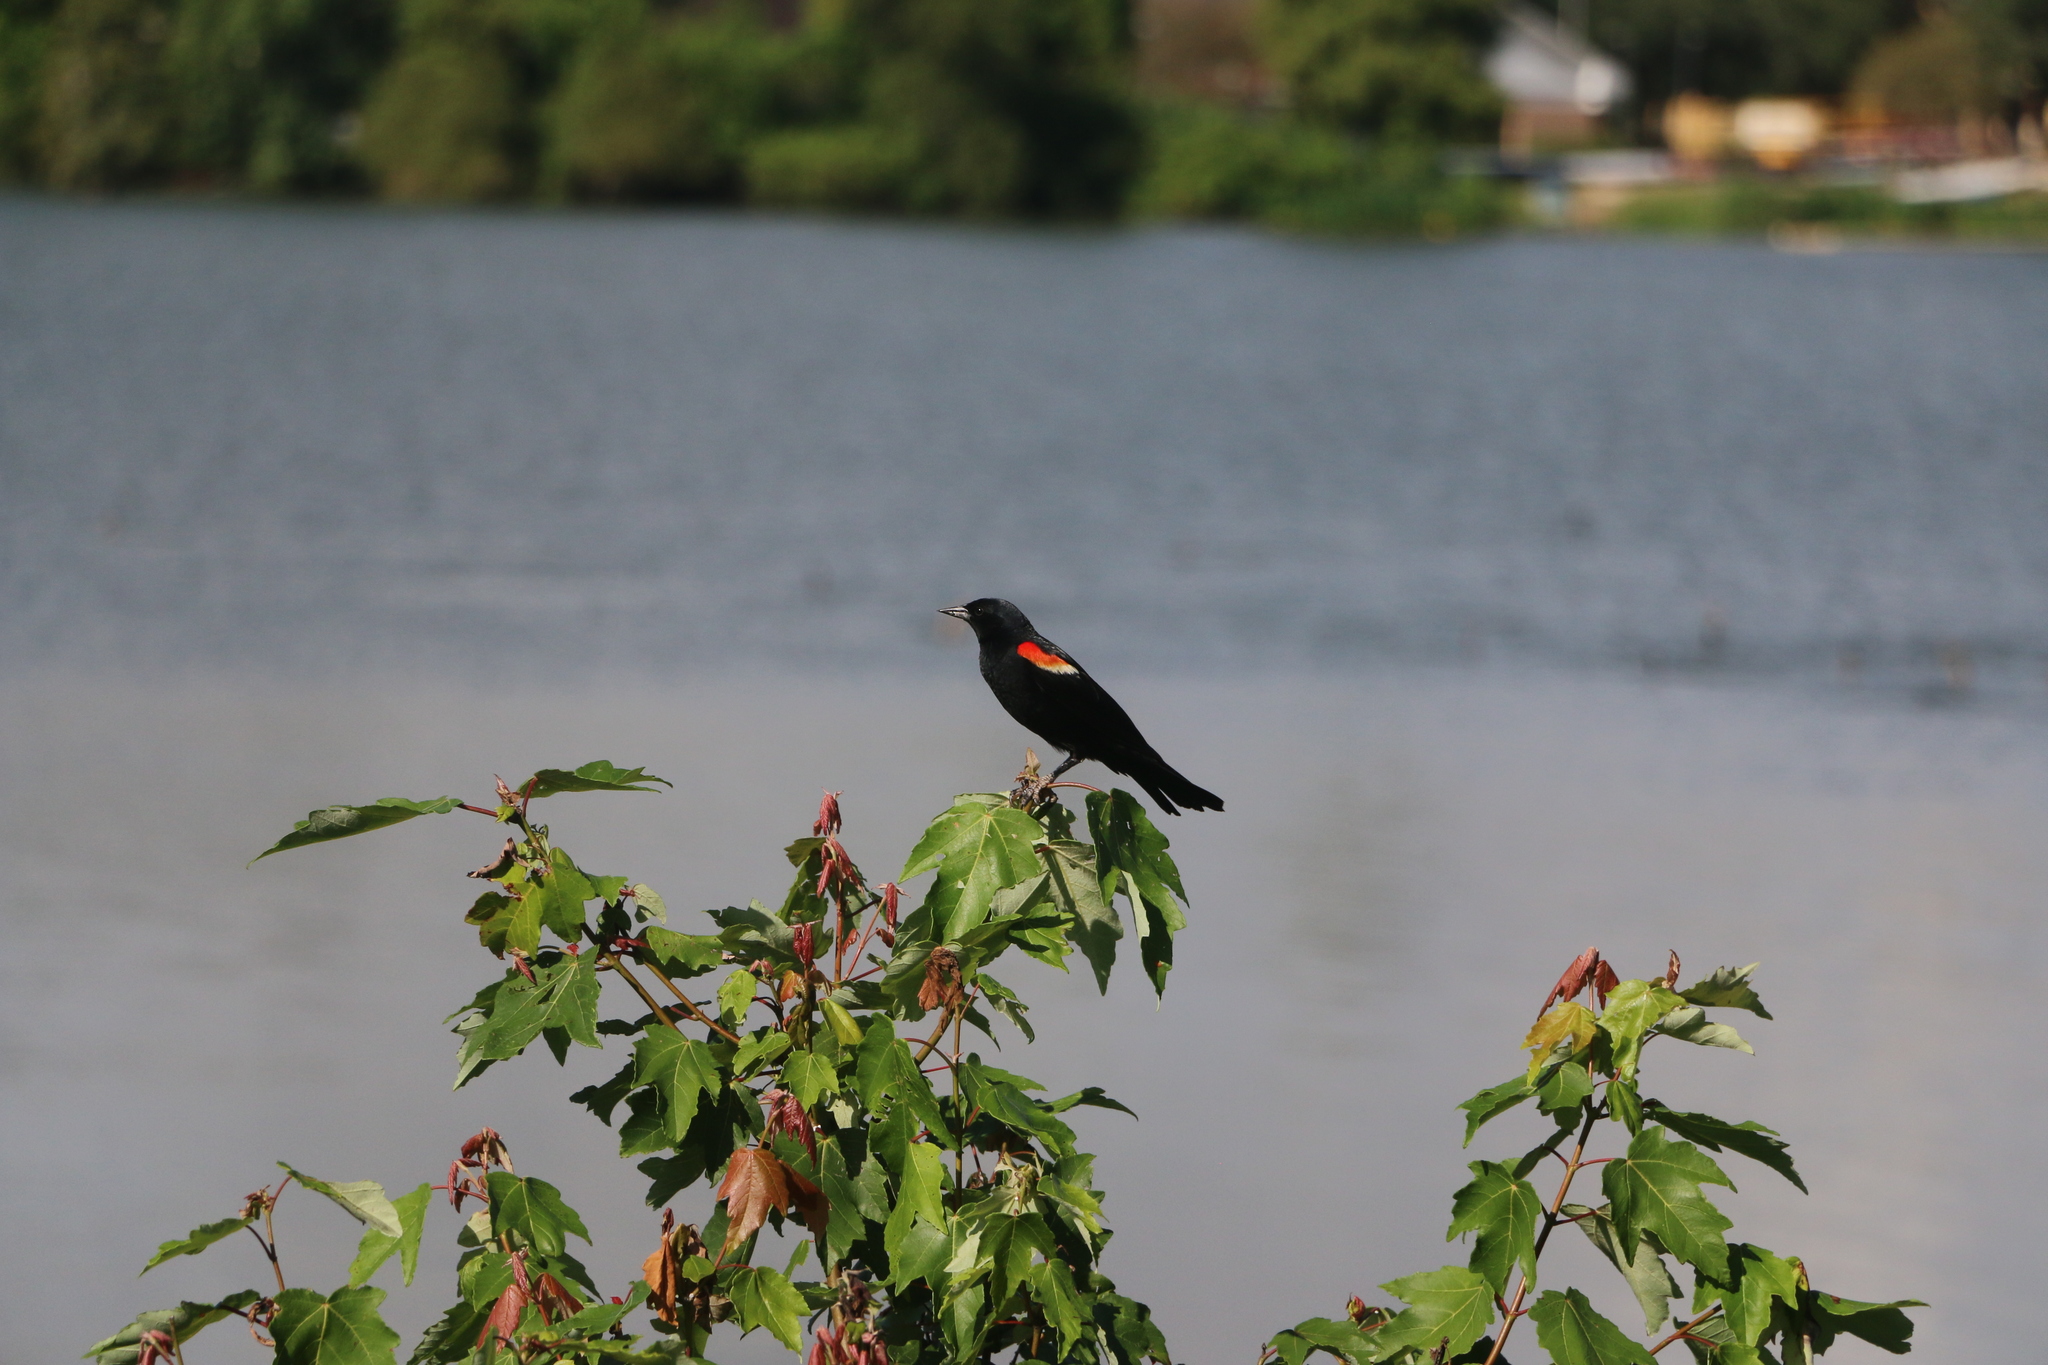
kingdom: Animalia
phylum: Chordata
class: Aves
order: Passeriformes
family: Icteridae
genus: Agelaius
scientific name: Agelaius phoeniceus
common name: Red-winged blackbird
